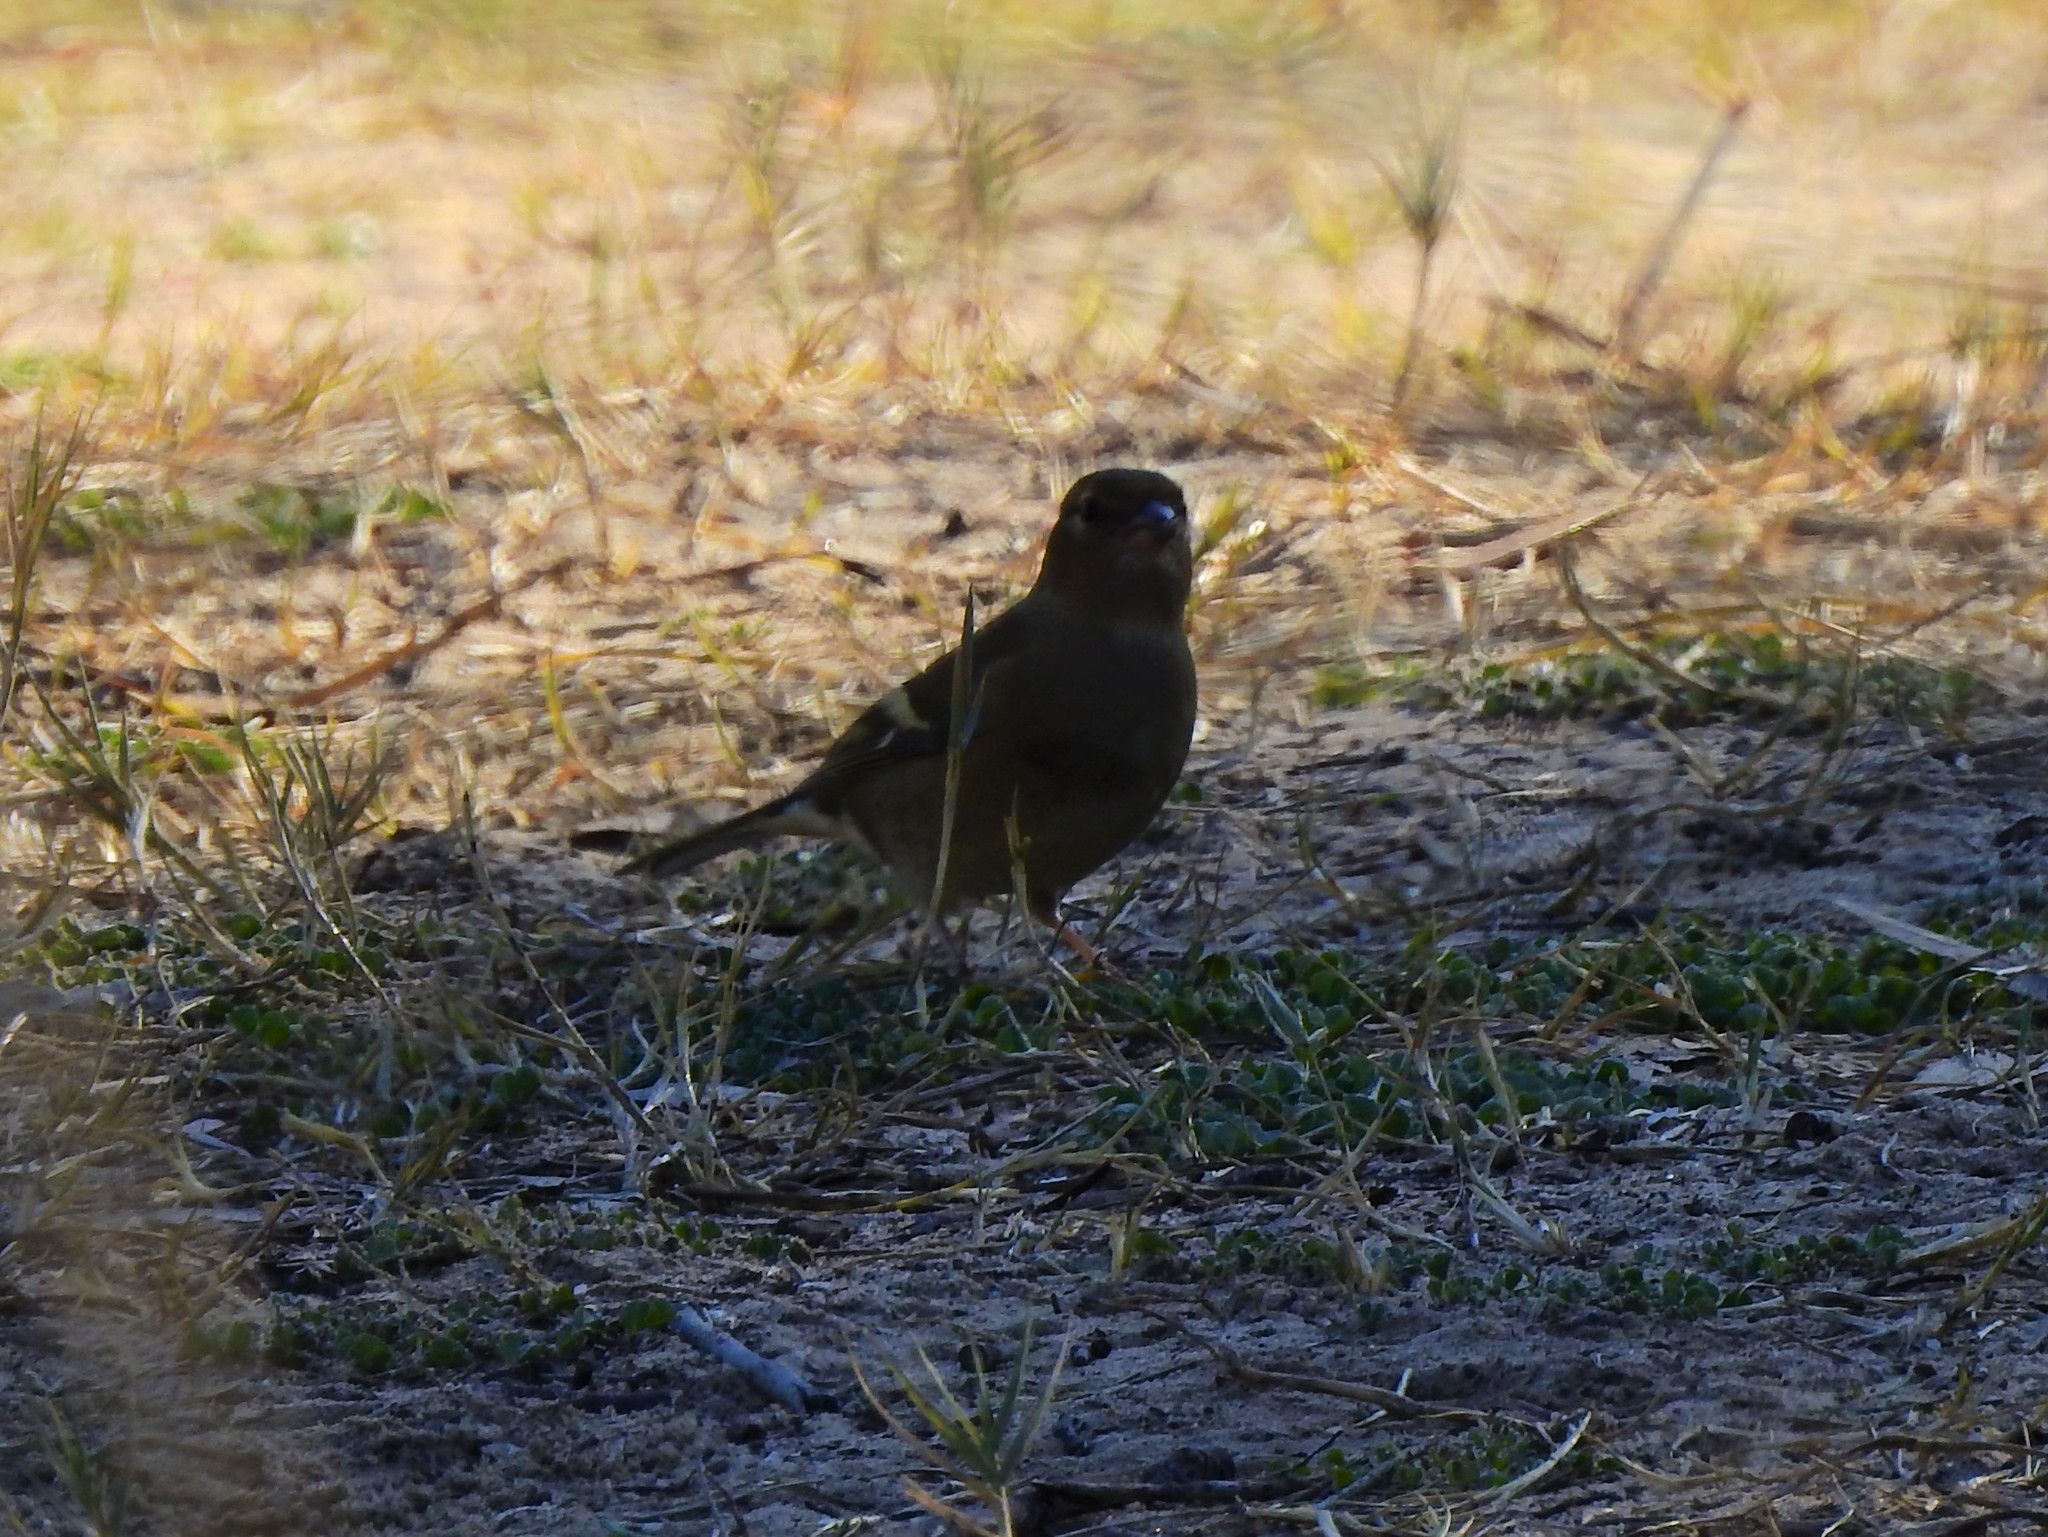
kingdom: Animalia
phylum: Chordata
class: Aves
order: Passeriformes
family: Fringillidae
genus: Fringilla
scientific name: Fringilla coelebs
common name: Common chaffinch
